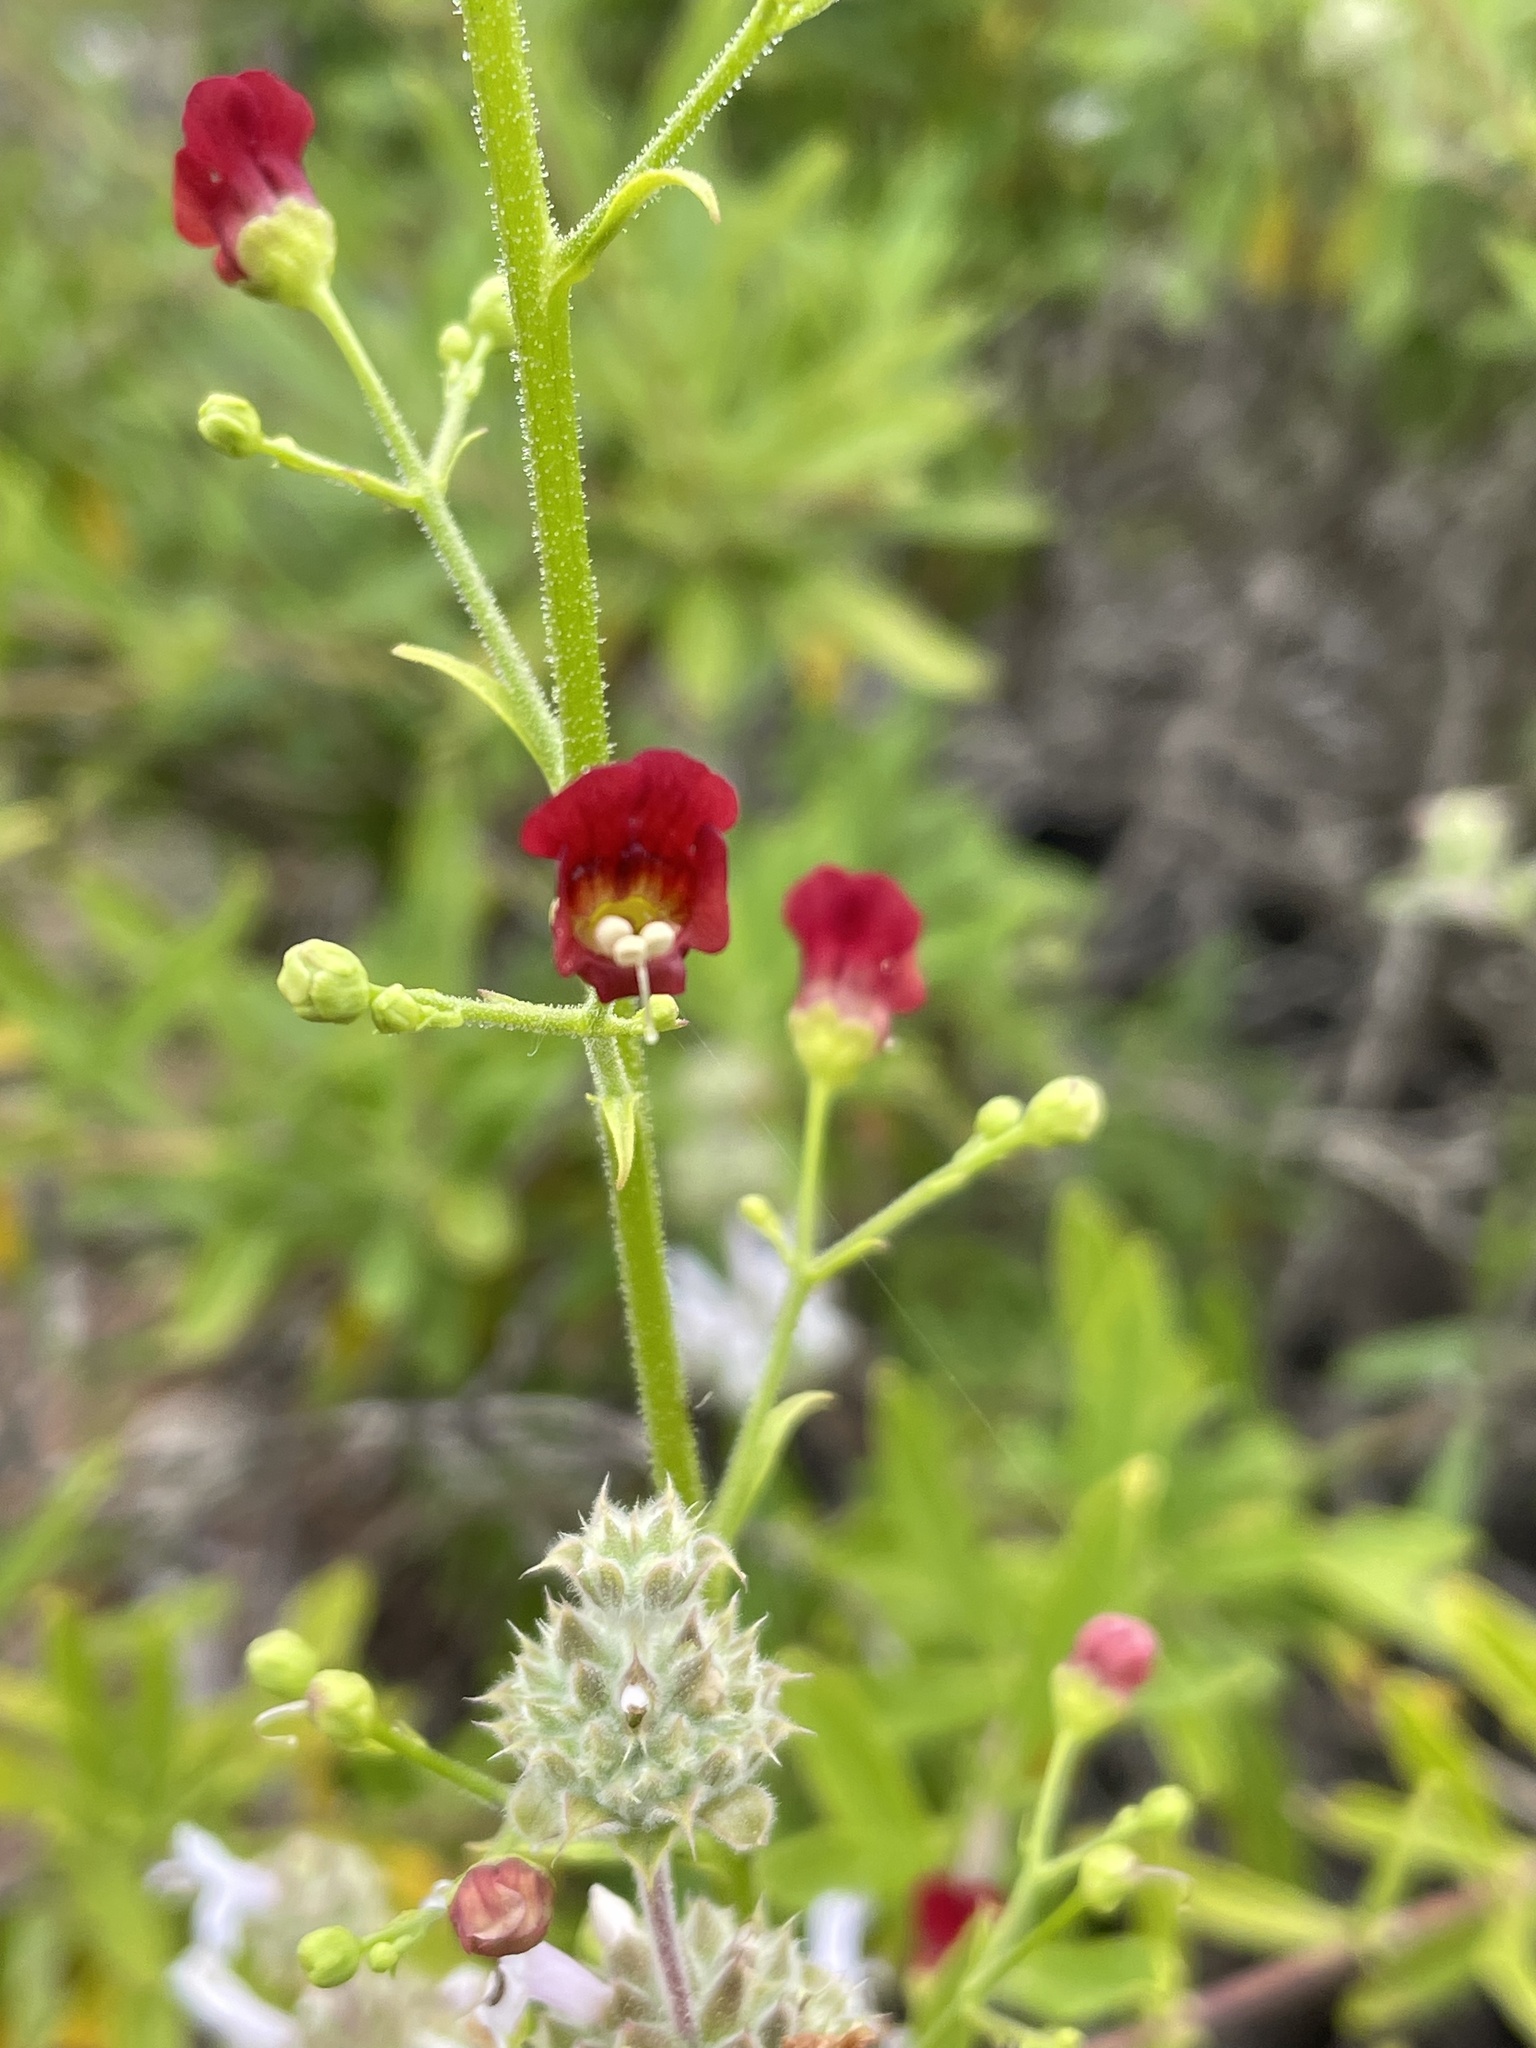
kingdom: Plantae
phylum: Tracheophyta
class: Magnoliopsida
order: Lamiales
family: Scrophulariaceae
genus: Scrophularia
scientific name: Scrophularia californica
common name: California figwort
